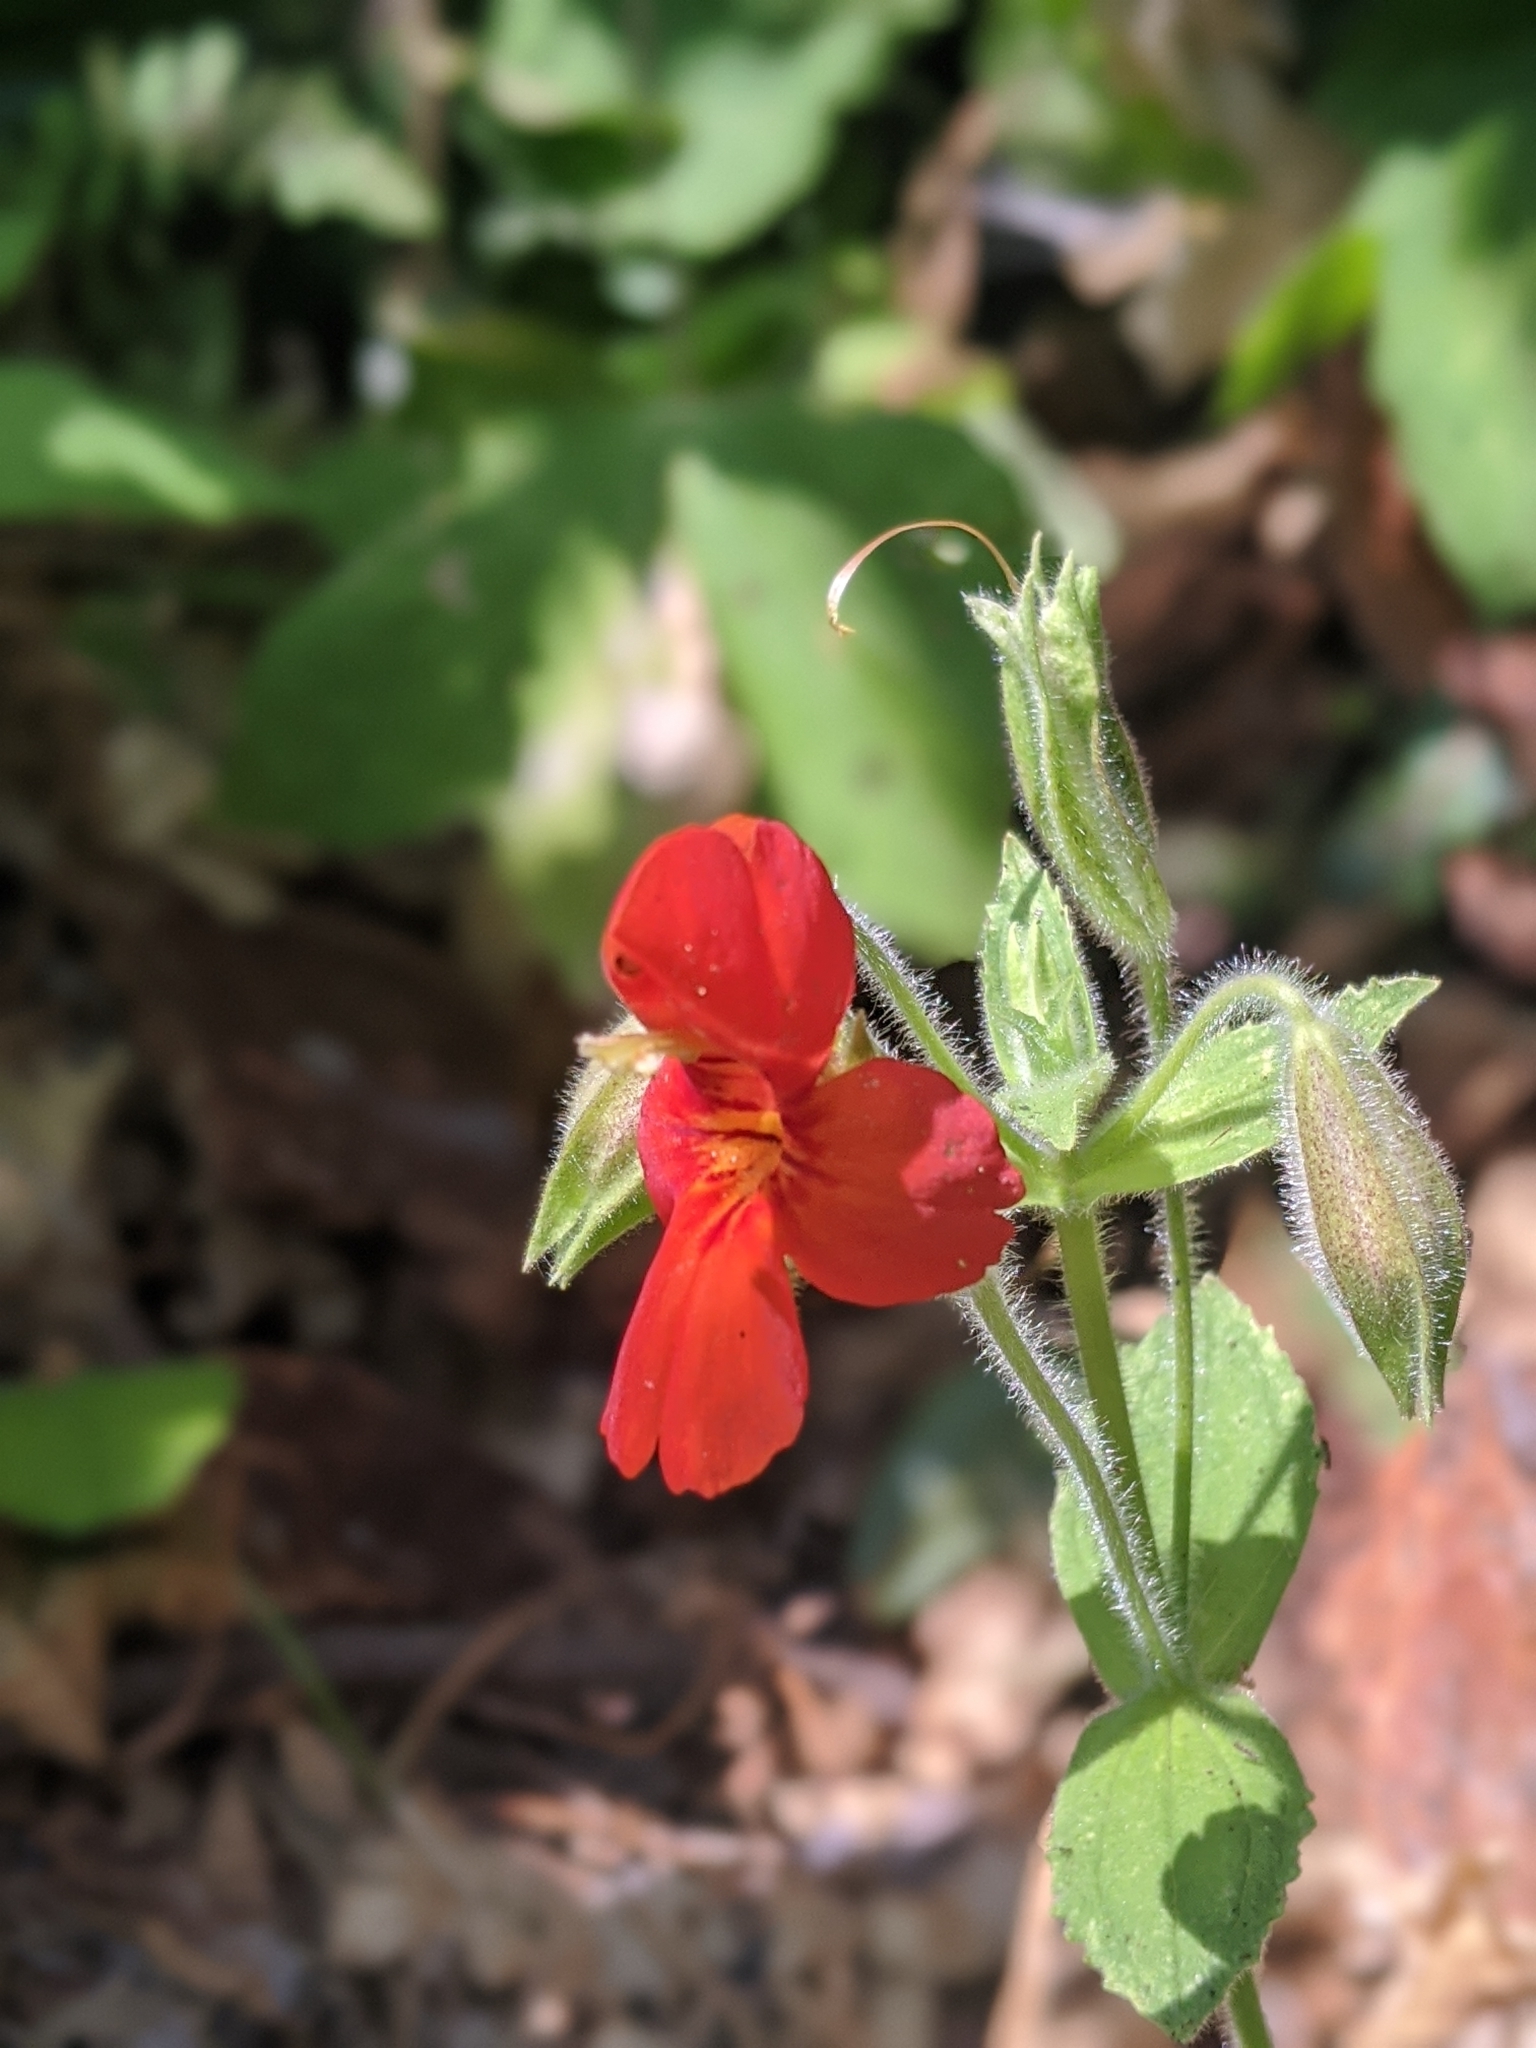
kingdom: Plantae
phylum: Tracheophyta
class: Magnoliopsida
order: Lamiales
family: Phrymaceae
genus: Erythranthe
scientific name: Erythranthe cardinalis
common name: Scarlet monkey-flower
